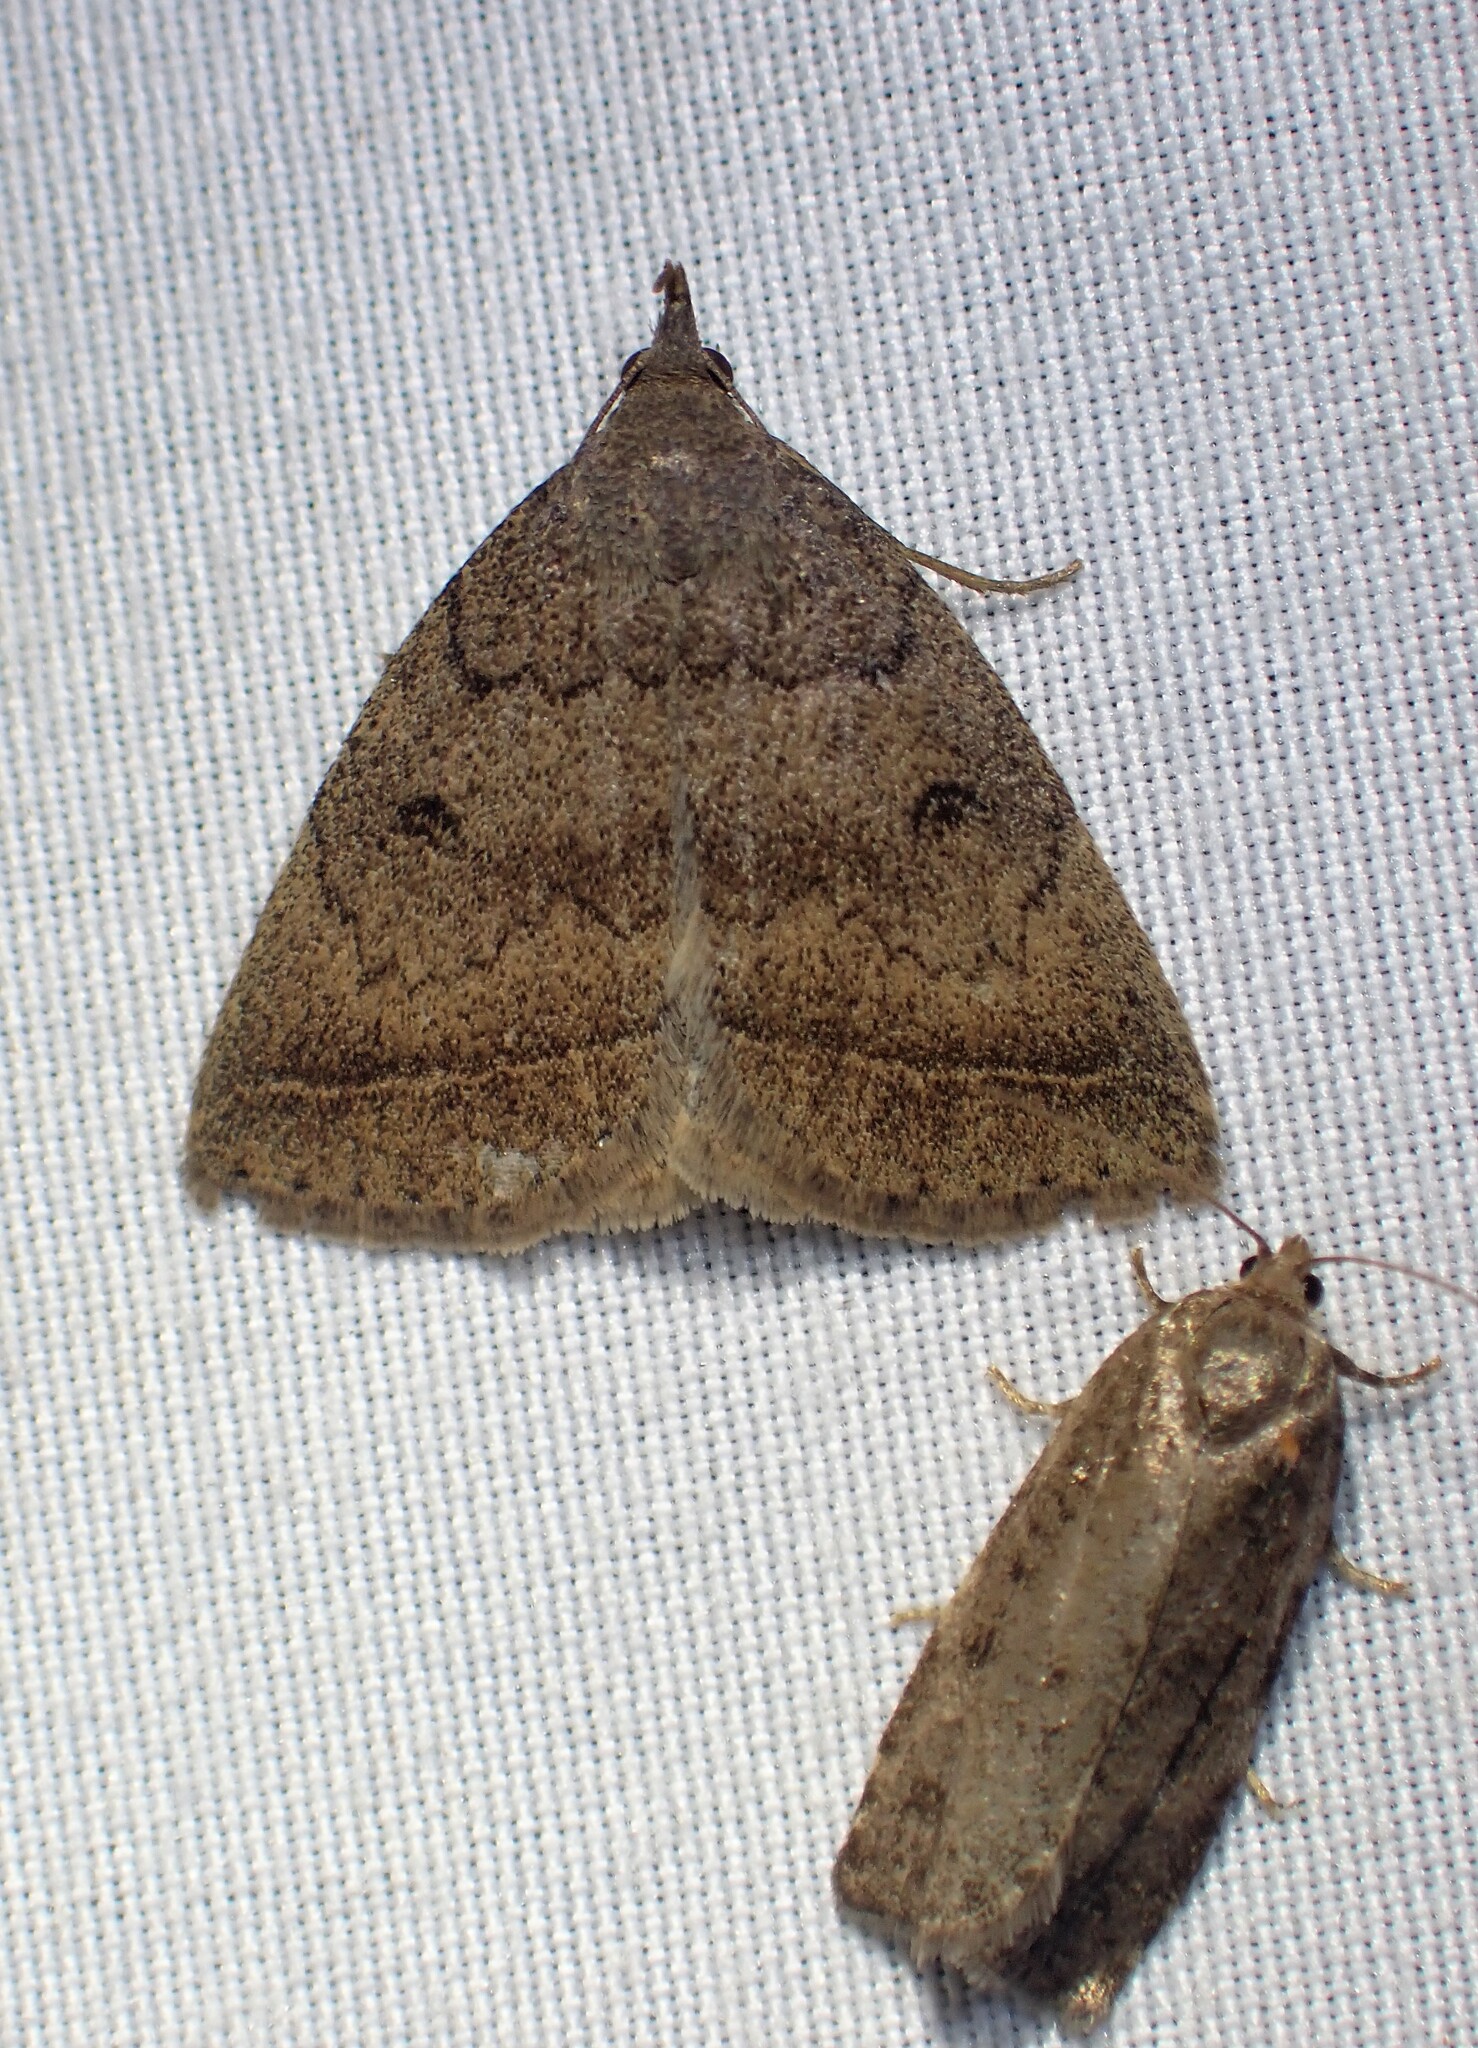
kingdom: Animalia
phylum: Arthropoda
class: Insecta
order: Lepidoptera
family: Erebidae
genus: Zanclognatha
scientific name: Zanclognatha jacchusalis
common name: Yellowish zanclognatha
